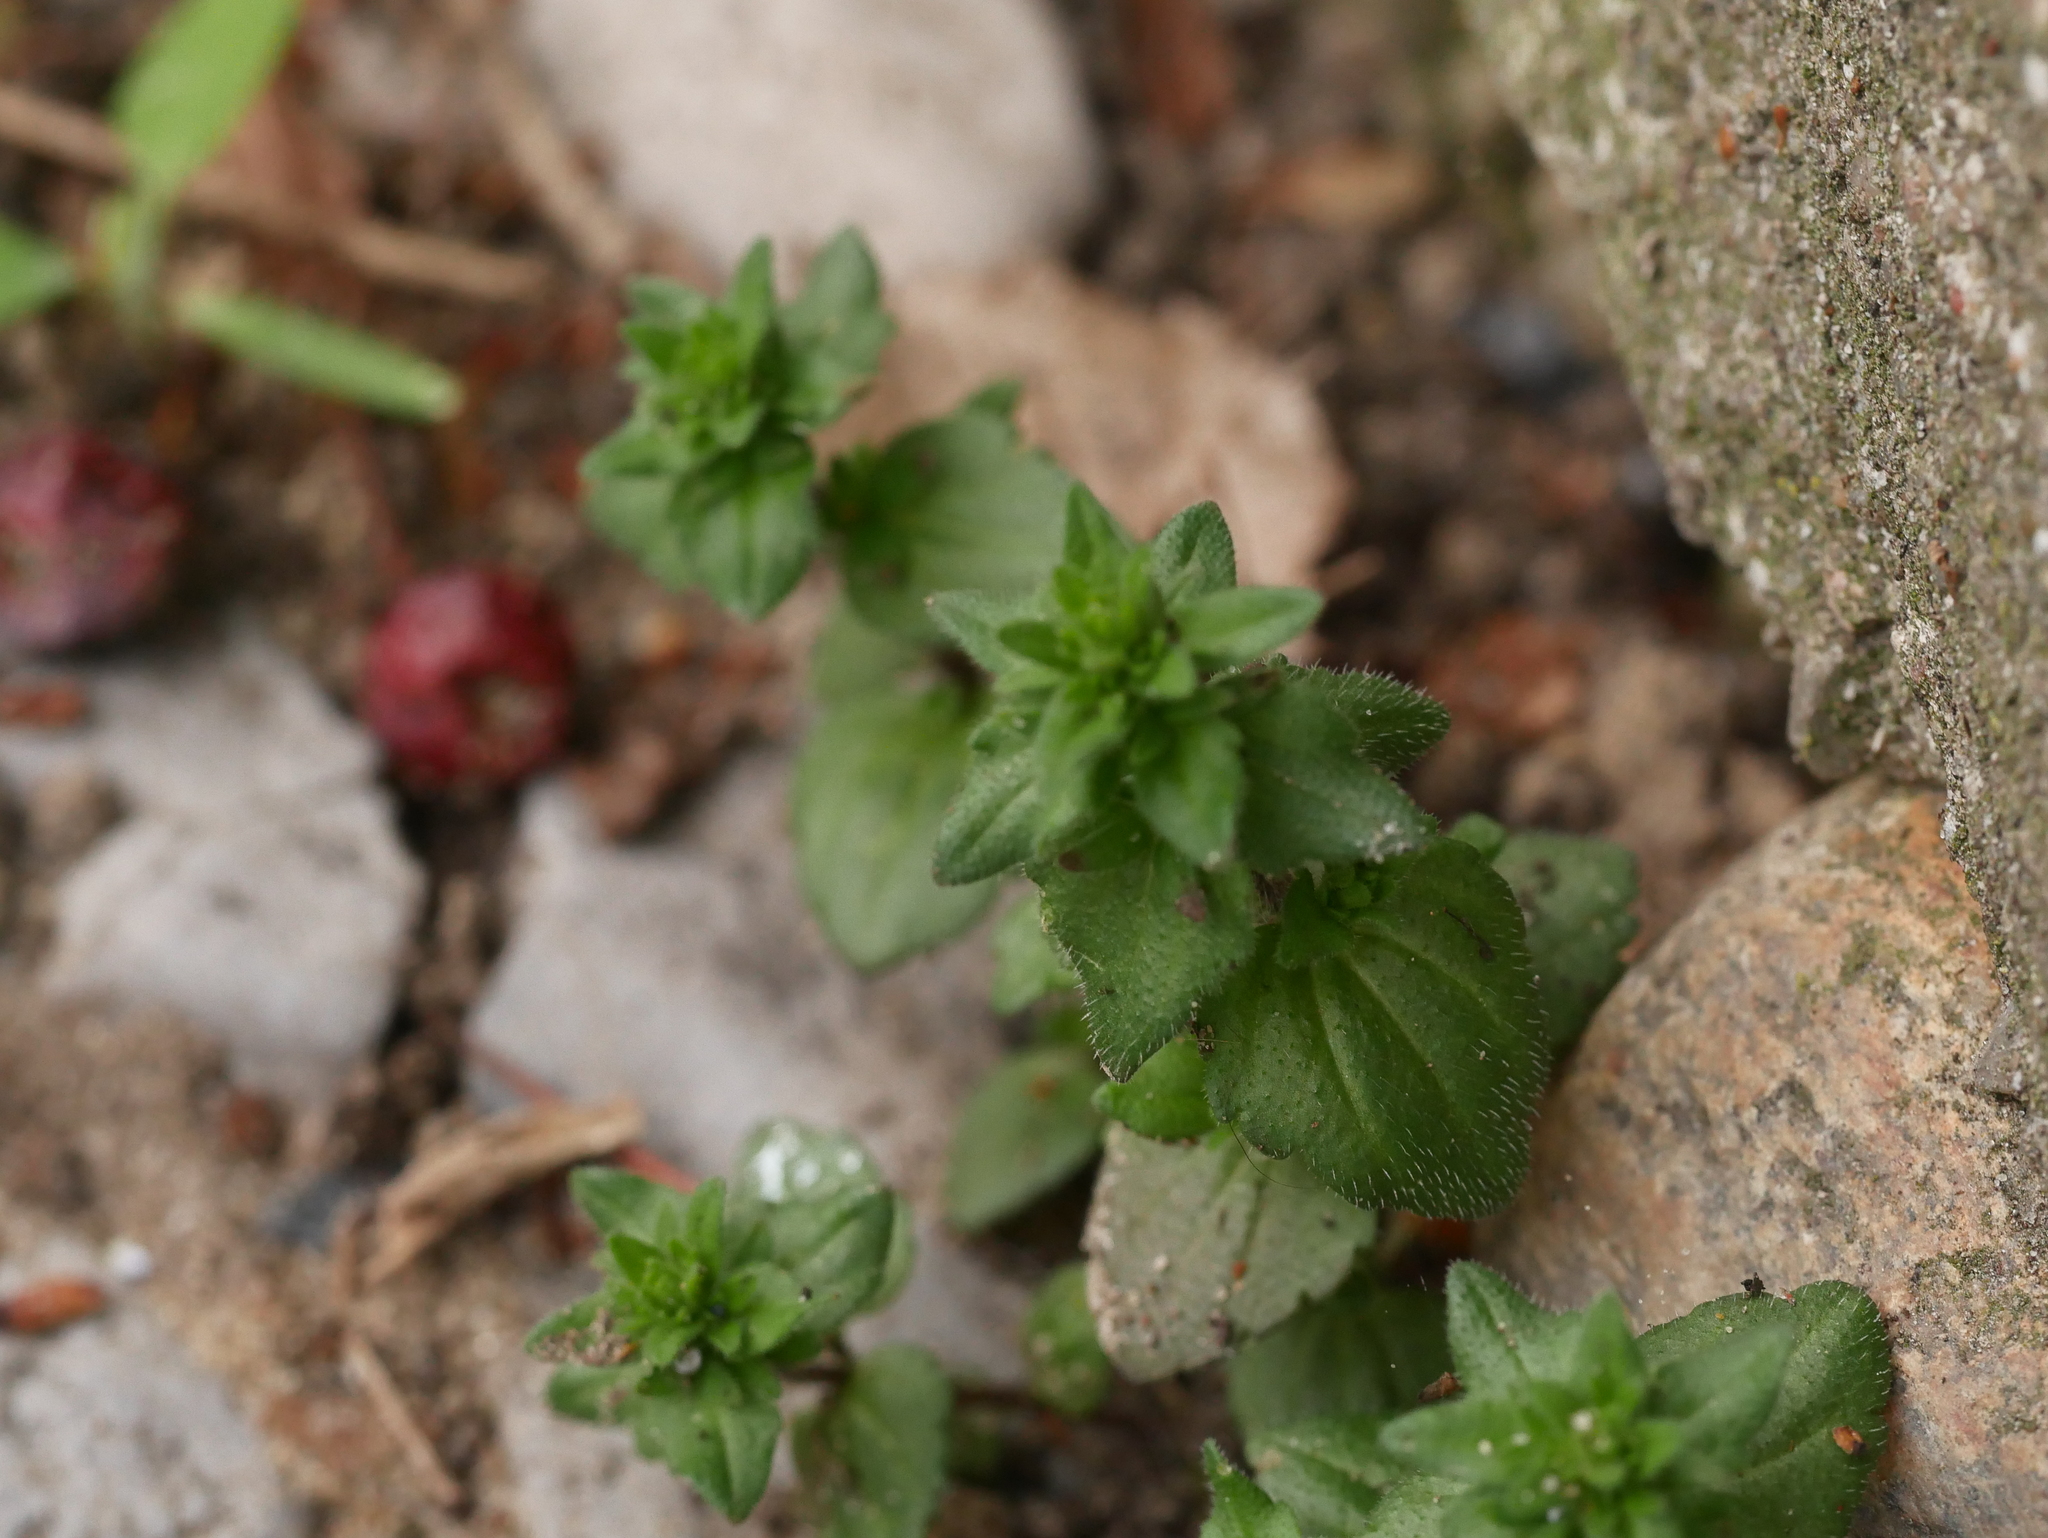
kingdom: Plantae
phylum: Tracheophyta
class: Magnoliopsida
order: Lamiales
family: Plantaginaceae
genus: Veronica
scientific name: Veronica arvensis
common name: Corn speedwell
